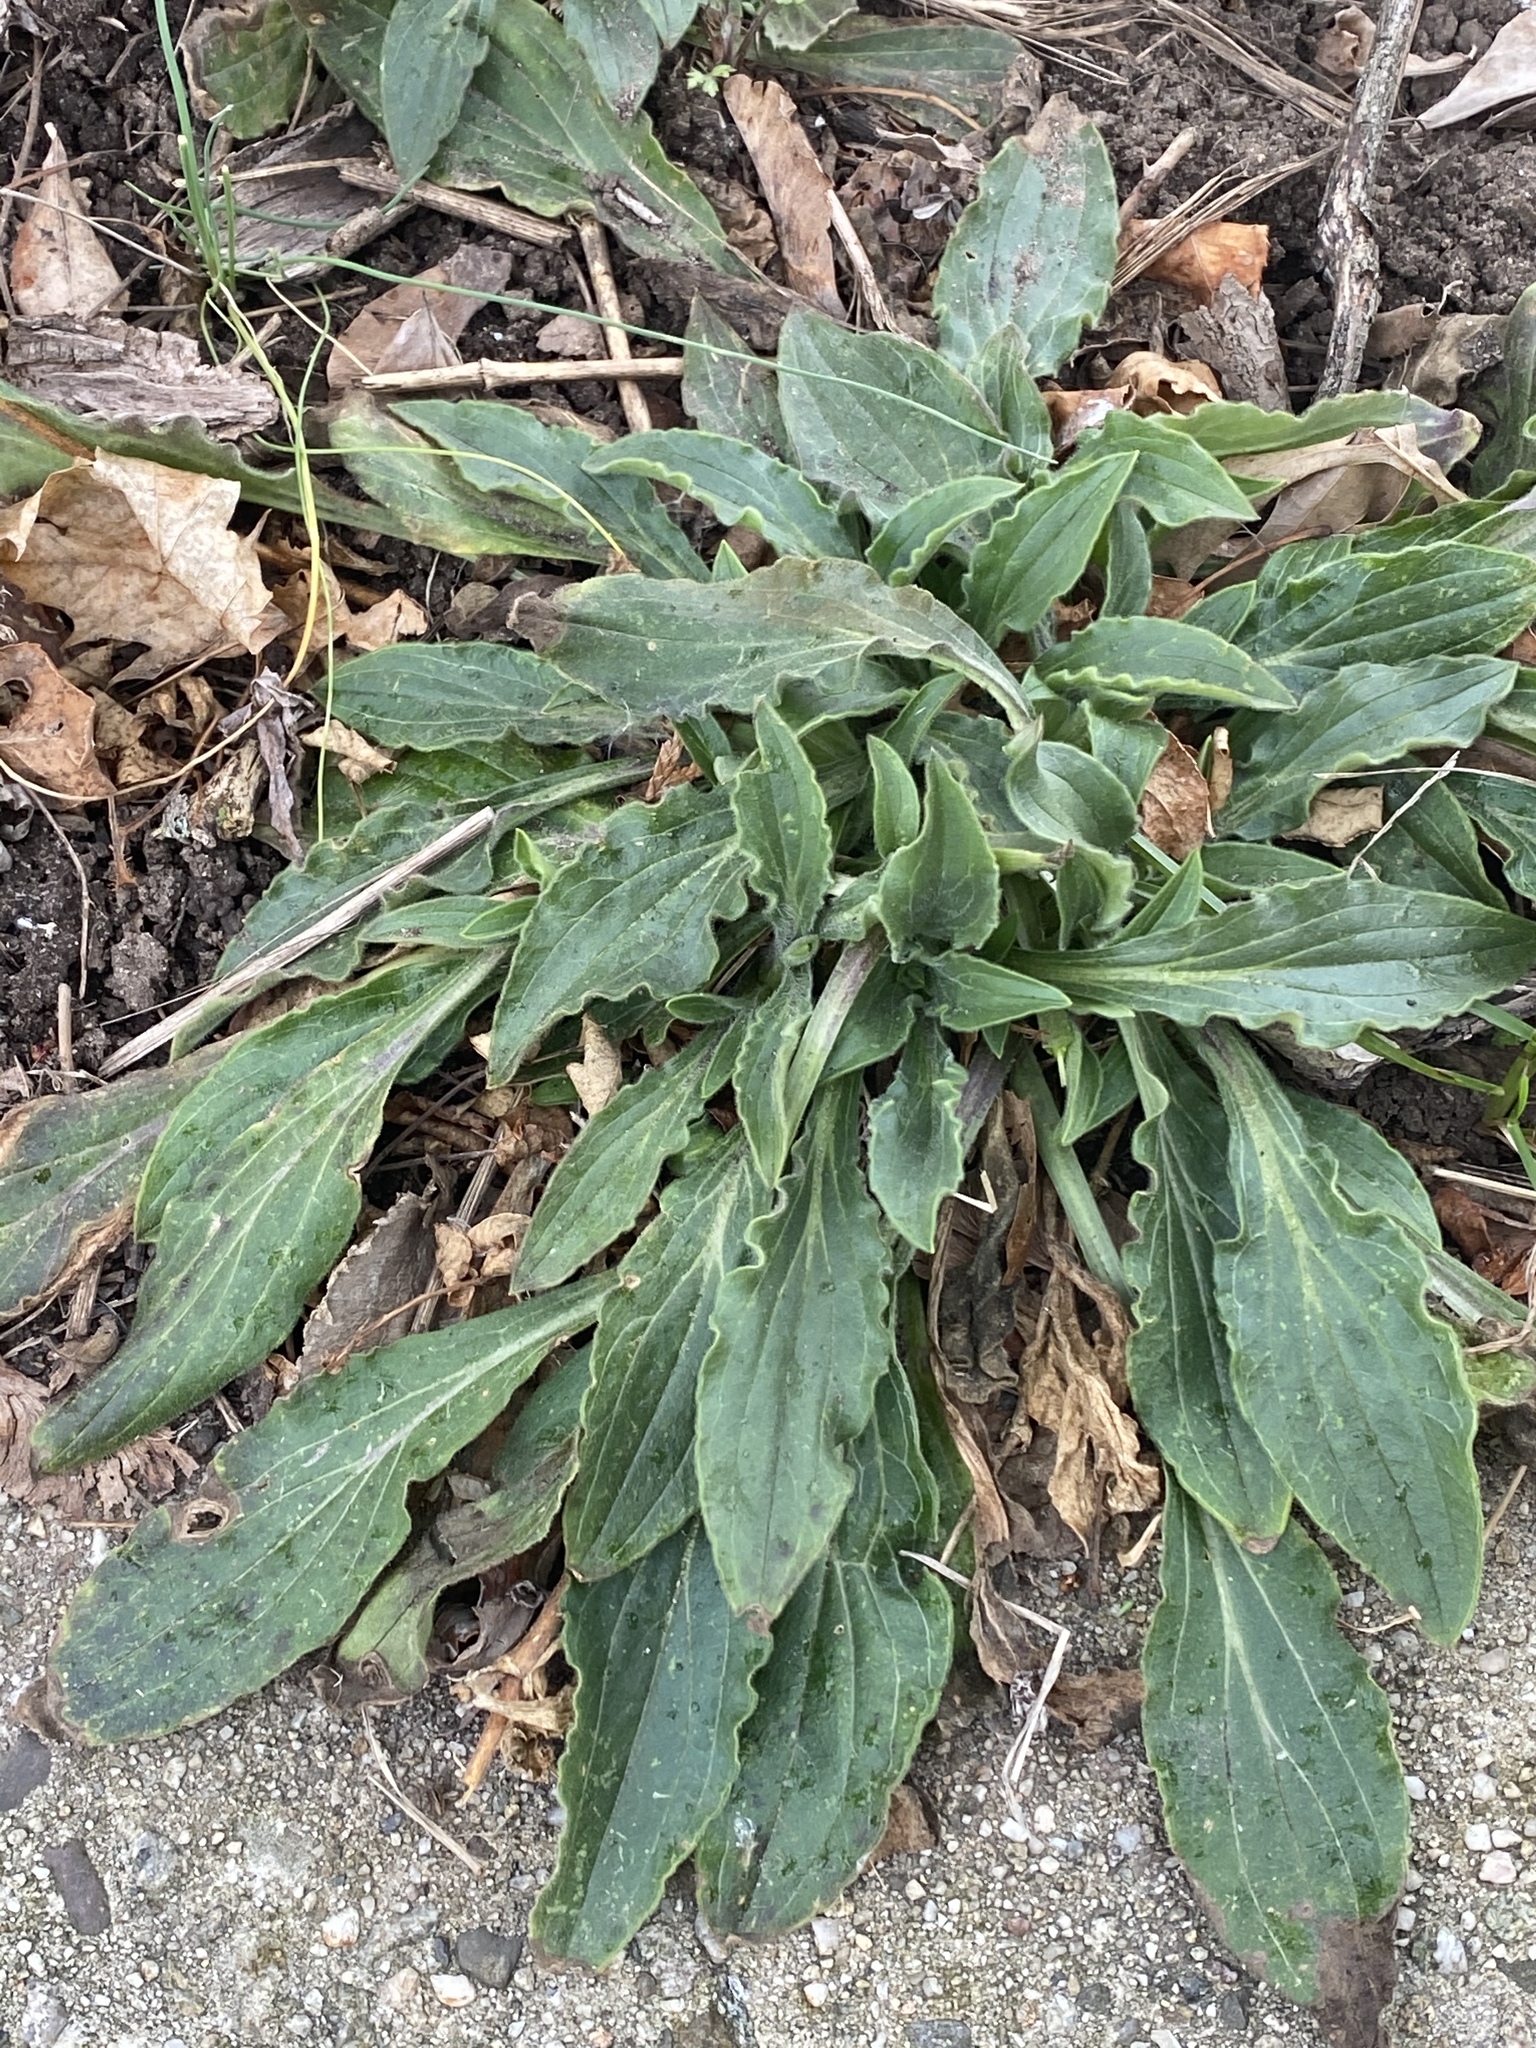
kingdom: Plantae
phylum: Tracheophyta
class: Magnoliopsida
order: Caryophyllales
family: Caryophyllaceae
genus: Silene
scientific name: Silene latifolia
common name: White campion
